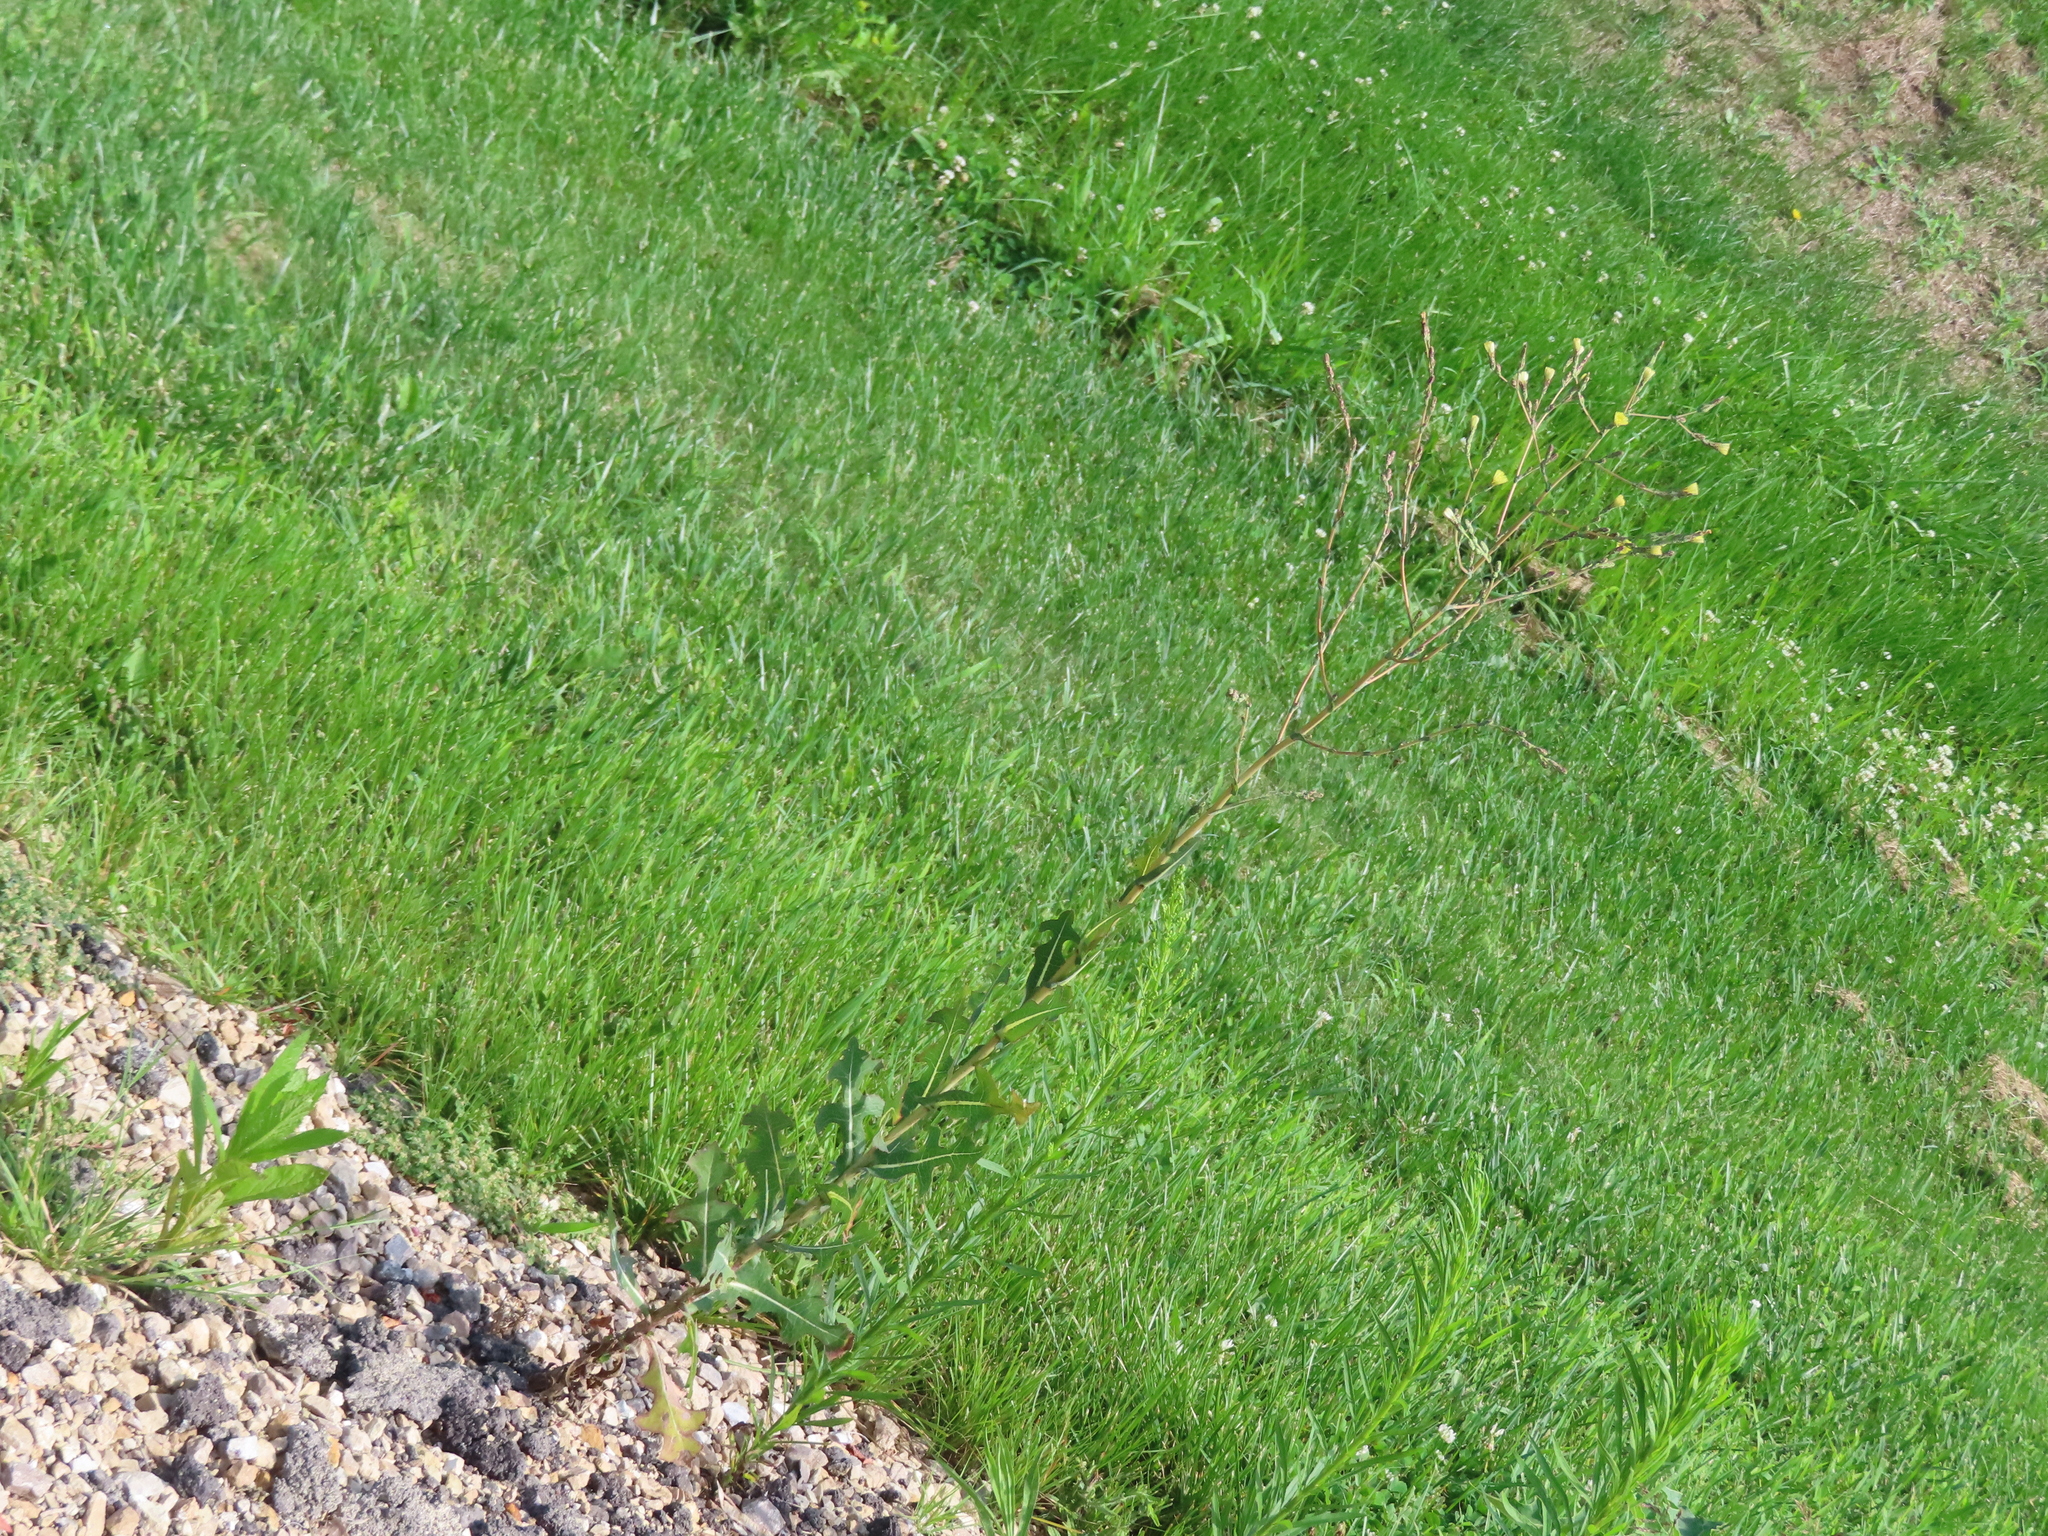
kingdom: Plantae
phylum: Tracheophyta
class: Magnoliopsida
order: Asterales
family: Asteraceae
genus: Lactuca
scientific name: Lactuca serriola
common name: Prickly lettuce
